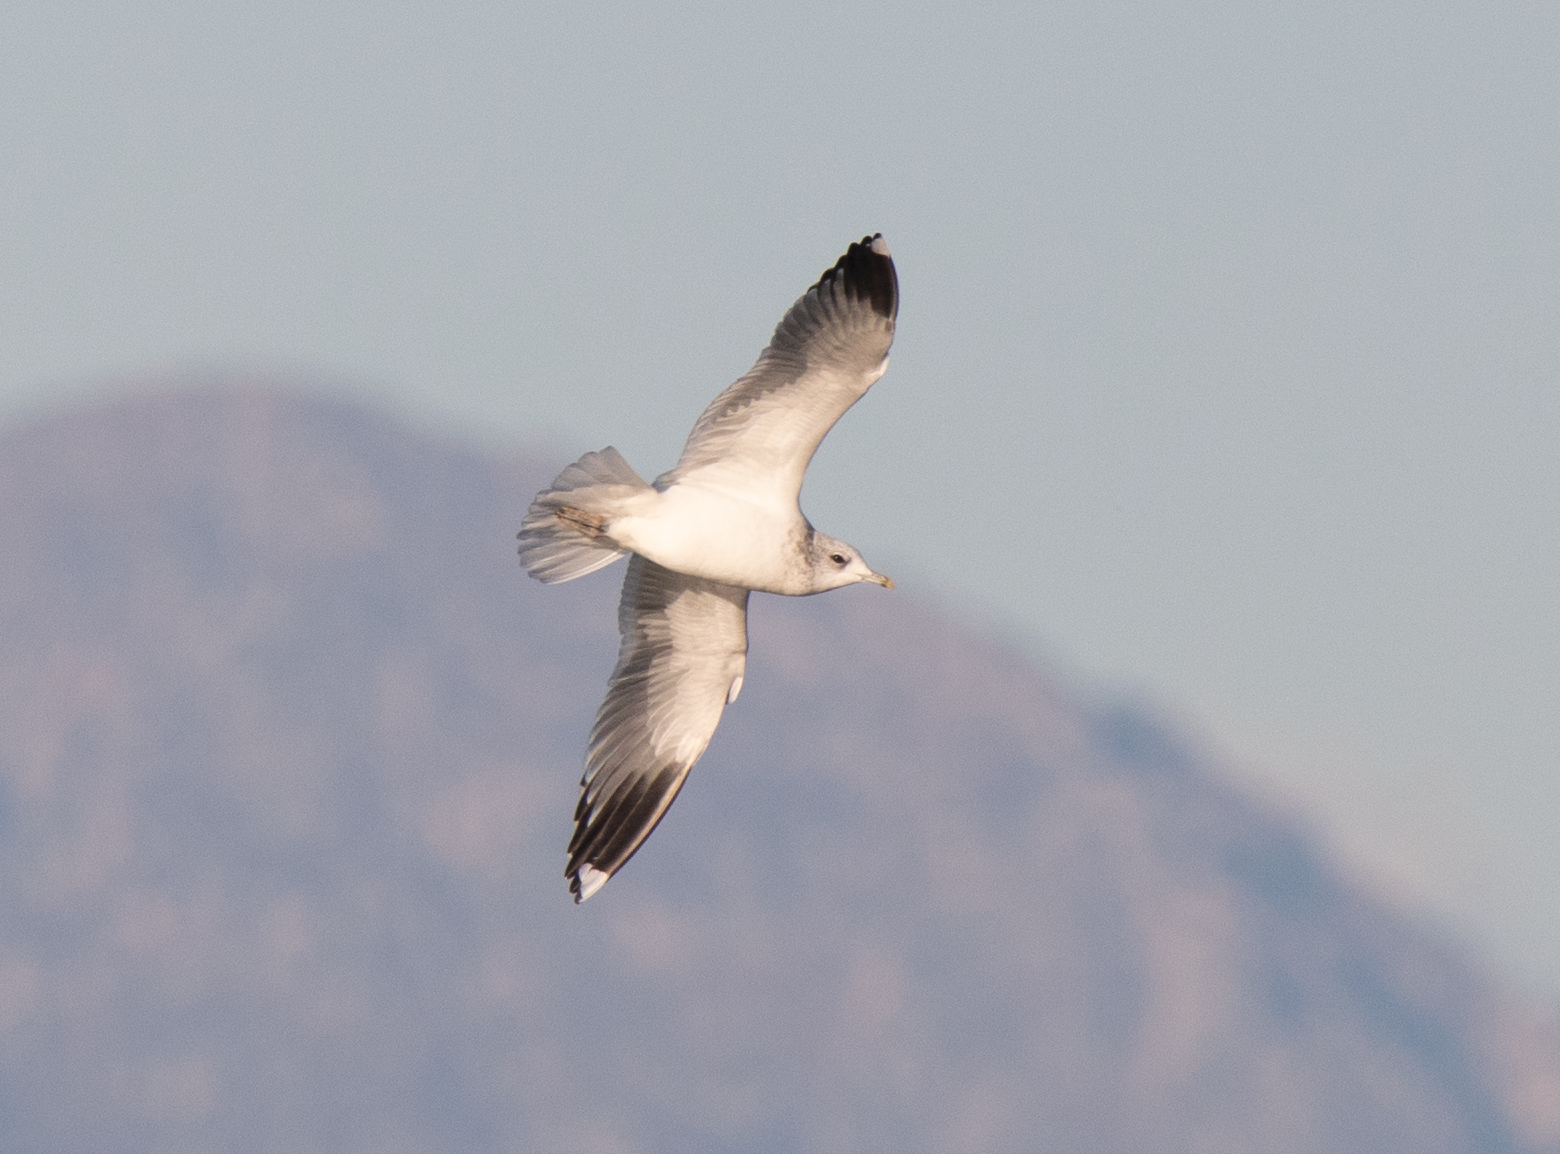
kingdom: Animalia
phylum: Chordata
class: Aves
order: Charadriiformes
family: Laridae
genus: Larus
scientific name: Larus canus
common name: Mew gull
